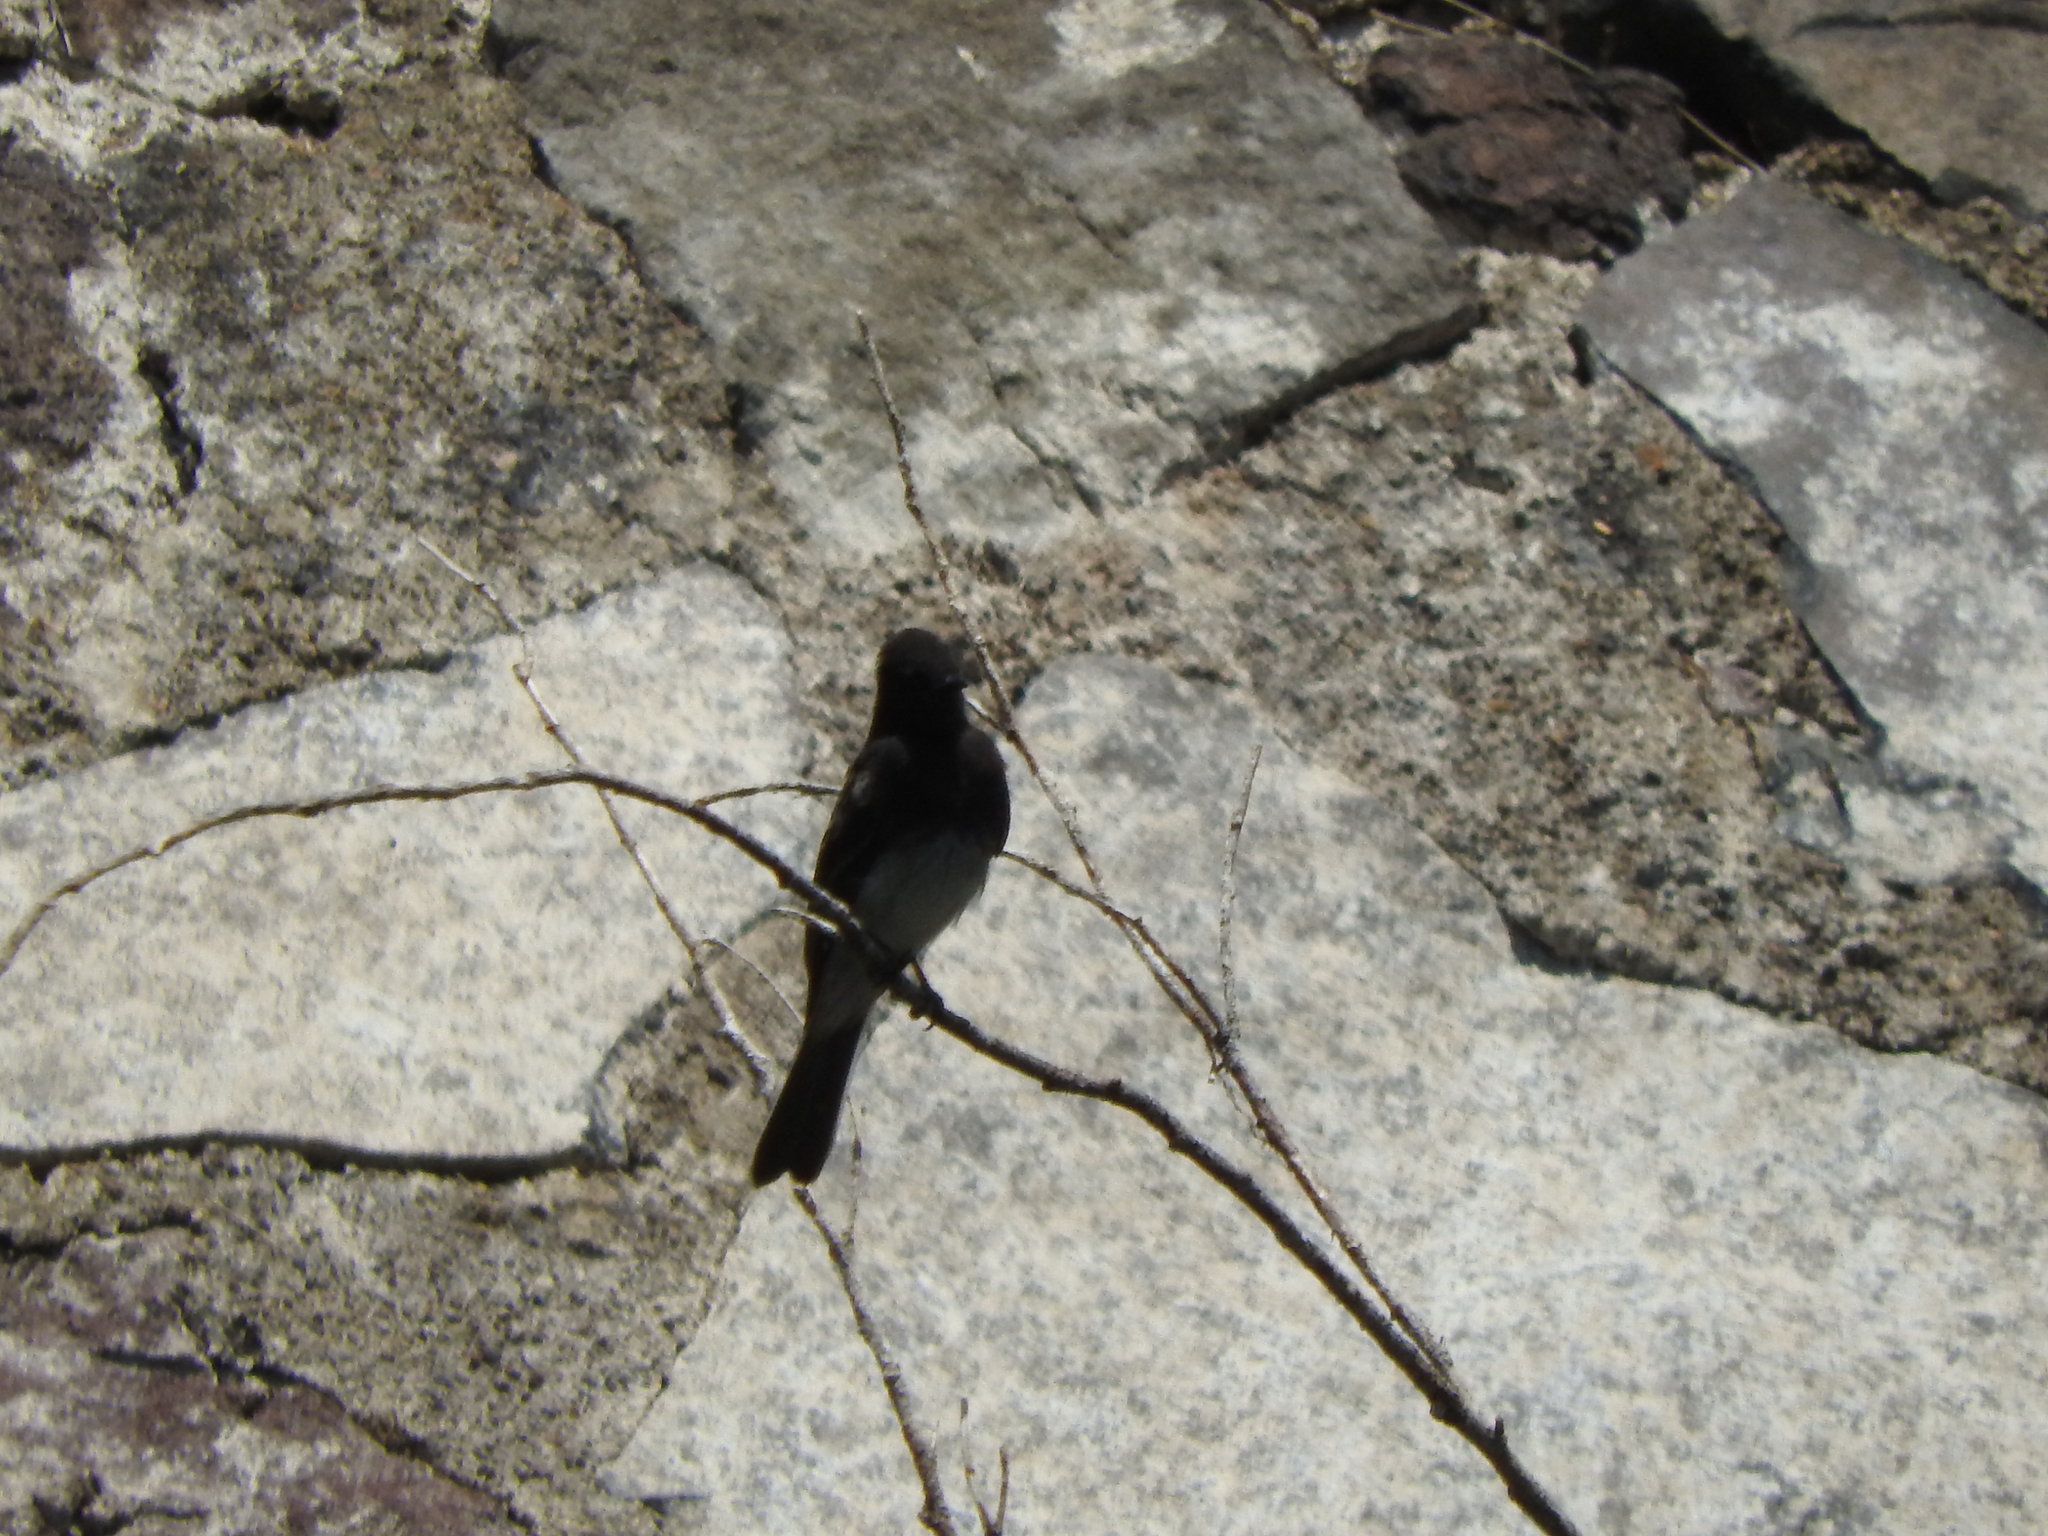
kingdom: Animalia
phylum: Chordata
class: Aves
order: Passeriformes
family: Tyrannidae
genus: Sayornis
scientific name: Sayornis nigricans
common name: Black phoebe
